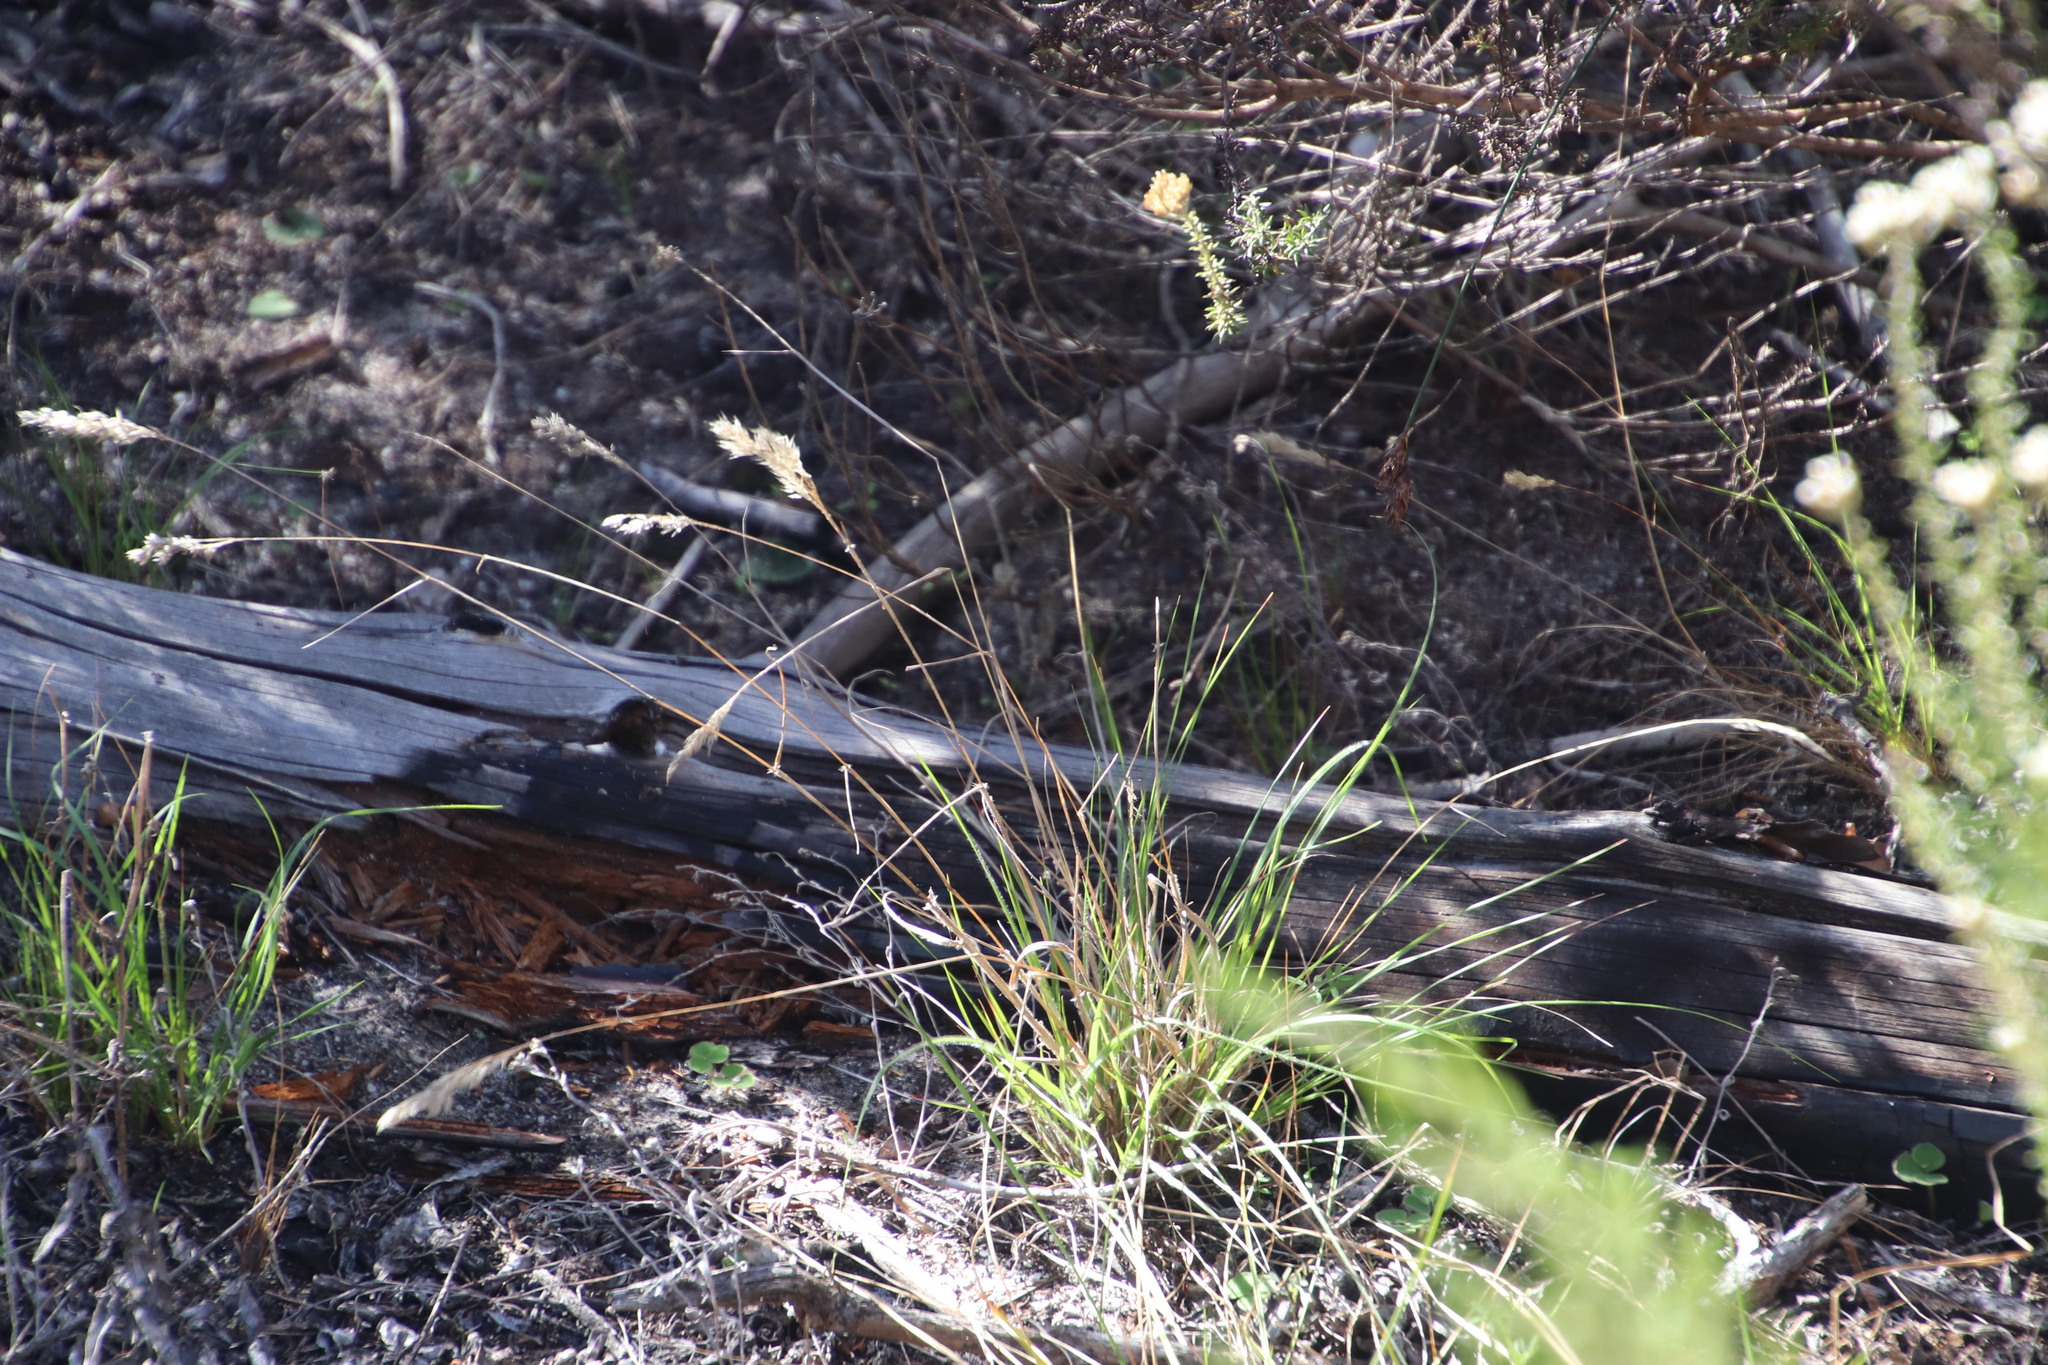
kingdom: Plantae
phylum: Tracheophyta
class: Liliopsida
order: Poales
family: Poaceae
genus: Pentameris
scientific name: Pentameris pallida
